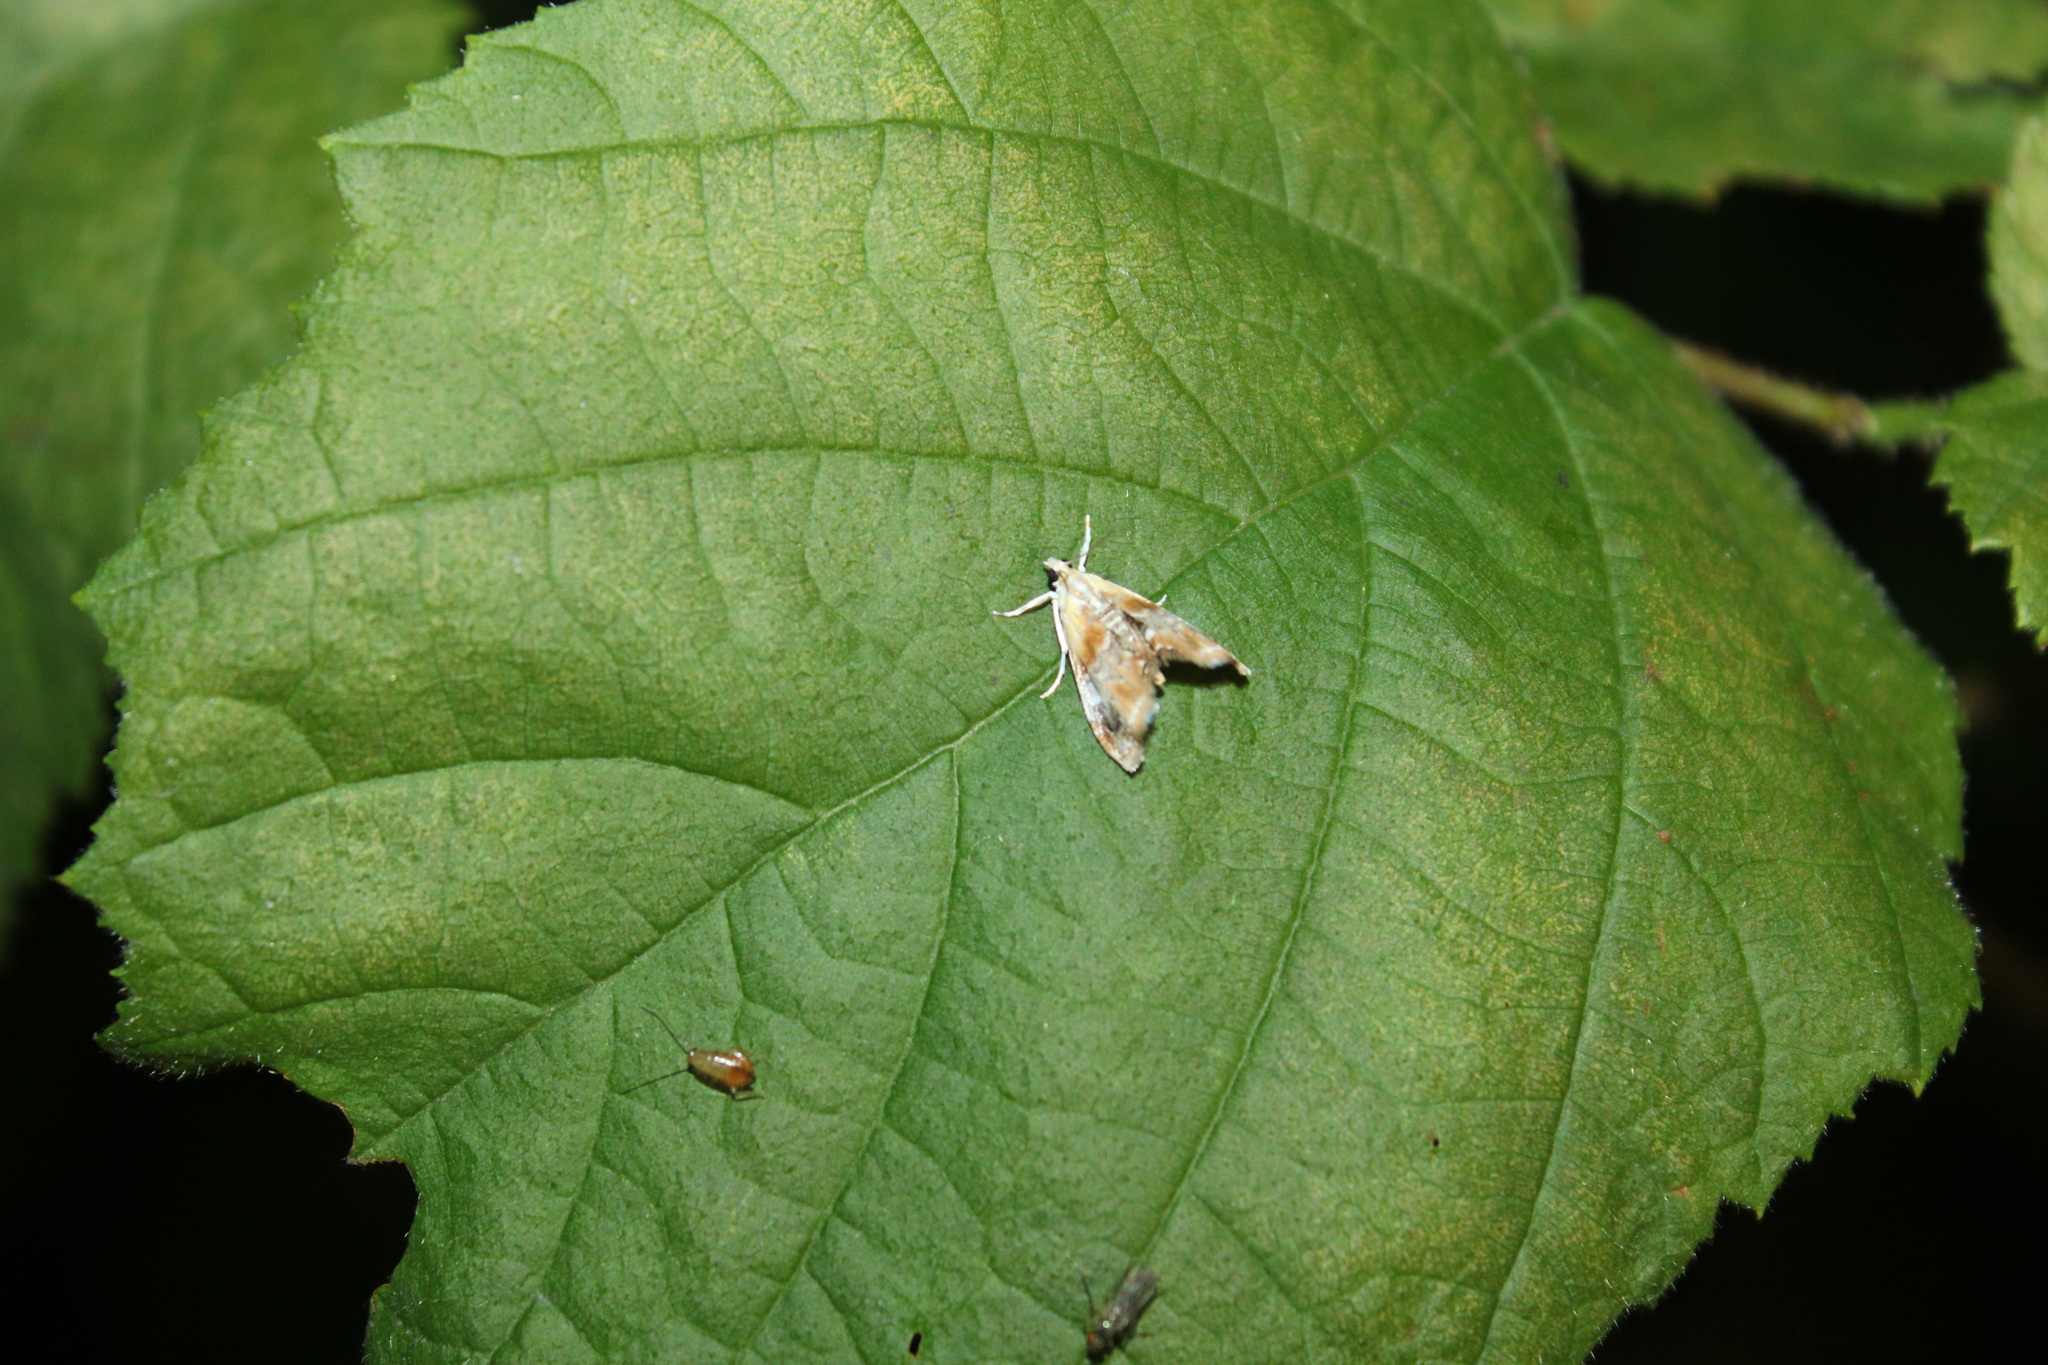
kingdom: Animalia
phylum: Arthropoda
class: Insecta
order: Lepidoptera
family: Crambidae
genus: Dicymolomia
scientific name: Dicymolomia julianalis
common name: Julia's dicymolomia moth
